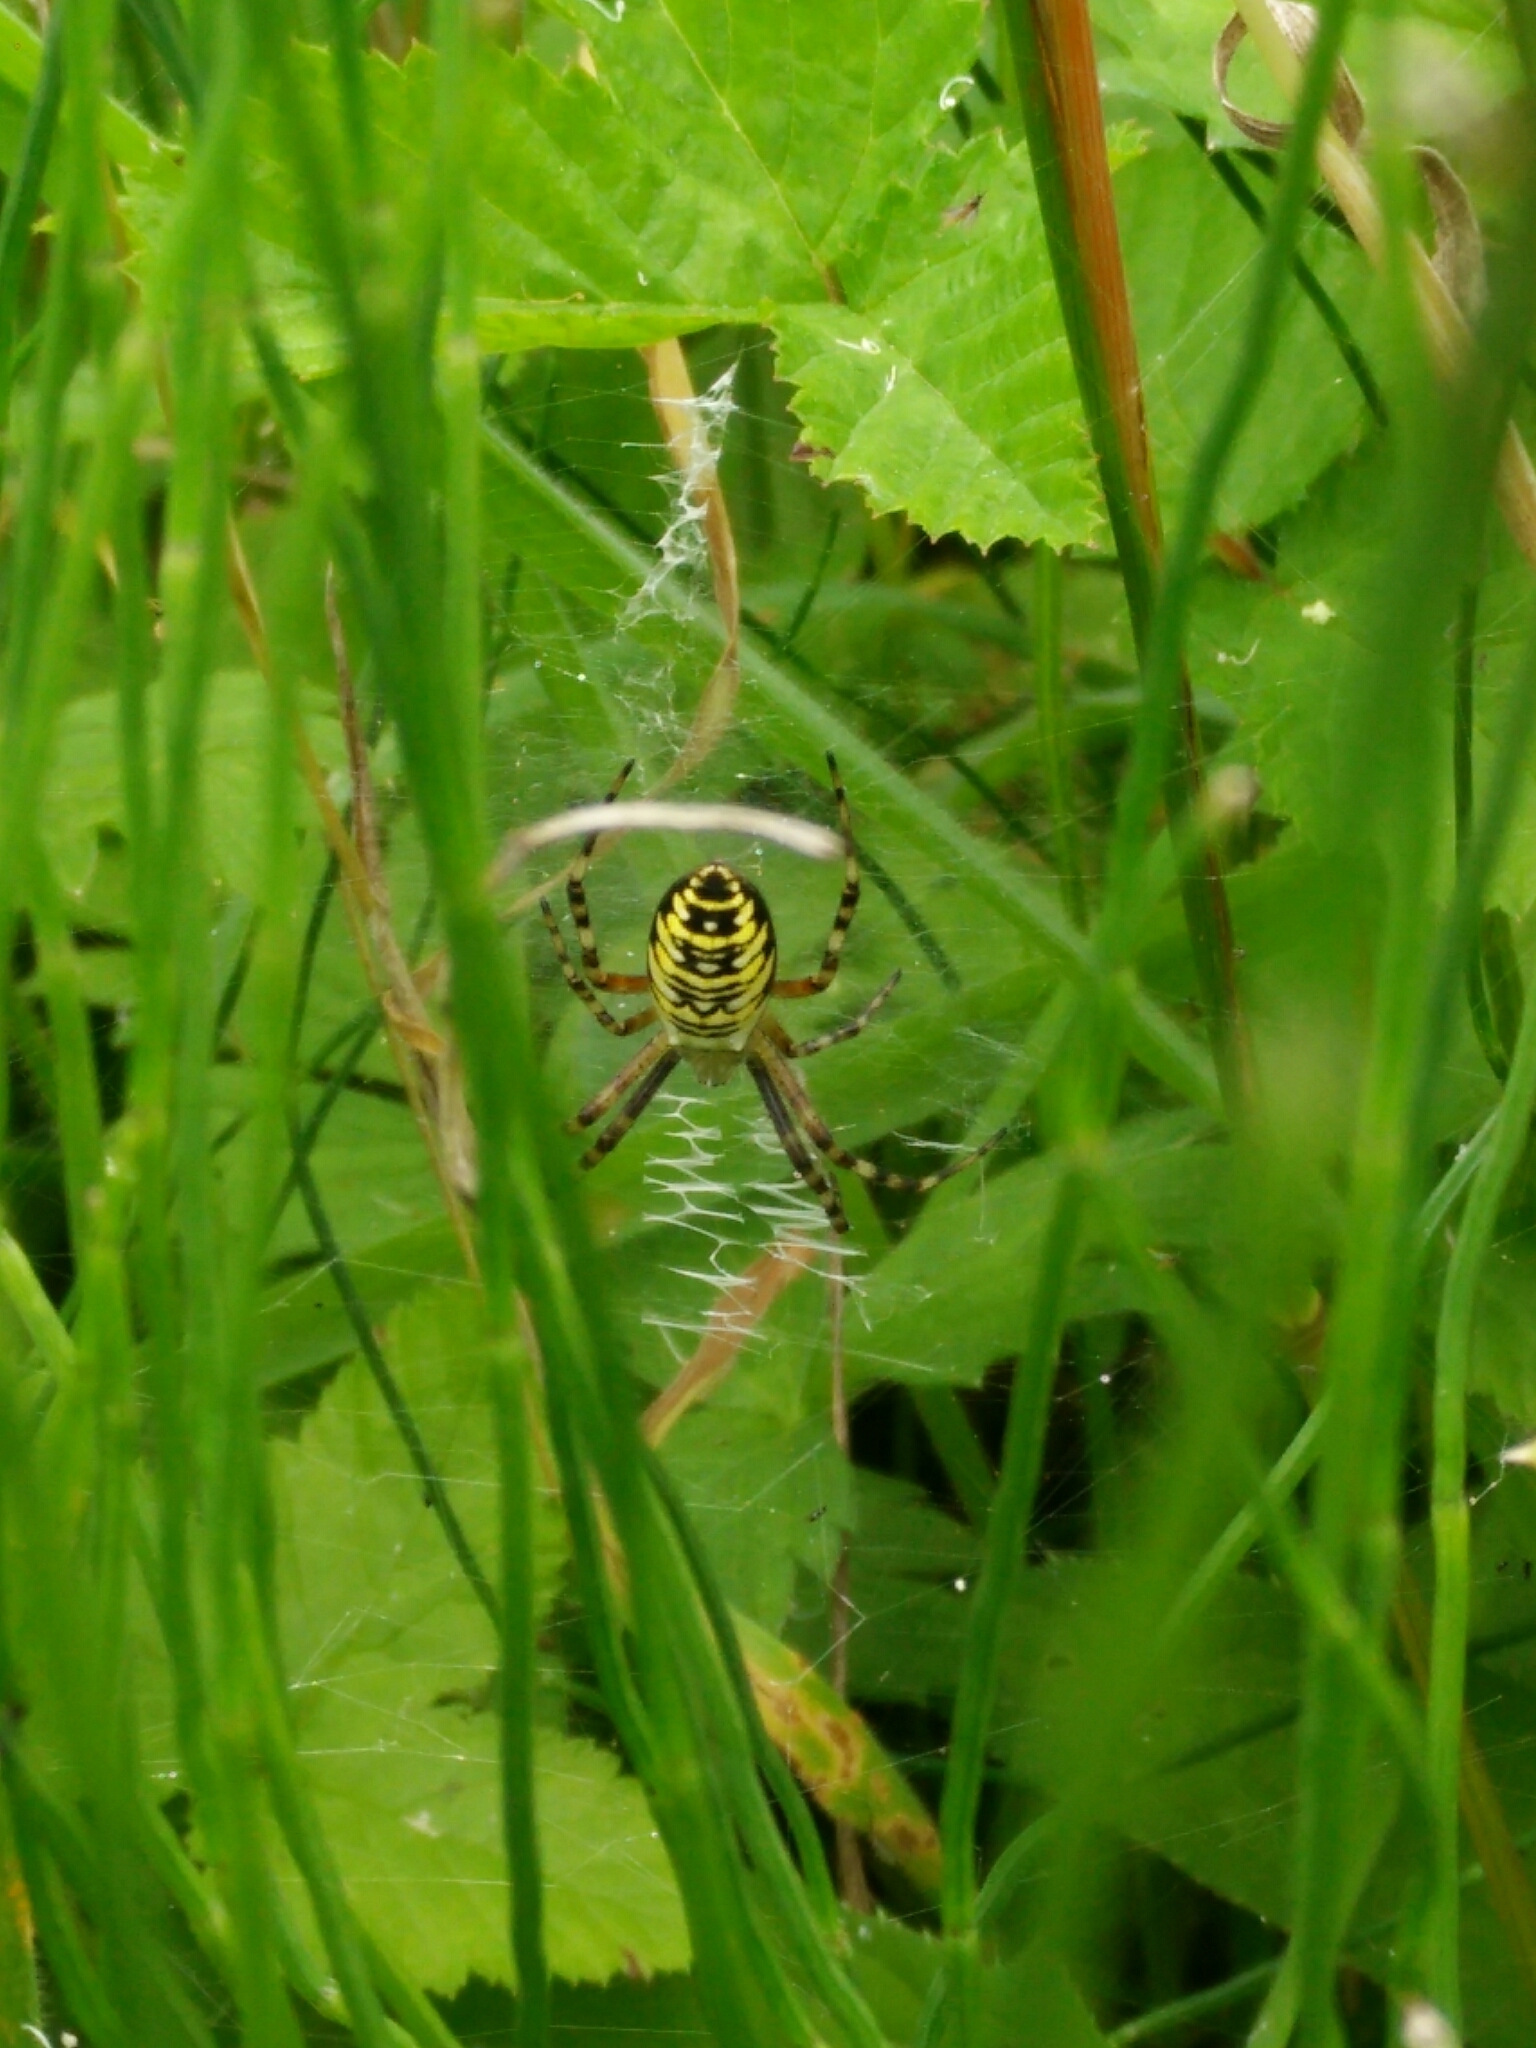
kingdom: Animalia
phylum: Arthropoda
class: Arachnida
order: Araneae
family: Araneidae
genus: Argiope
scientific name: Argiope bruennichi
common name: Wasp spider
